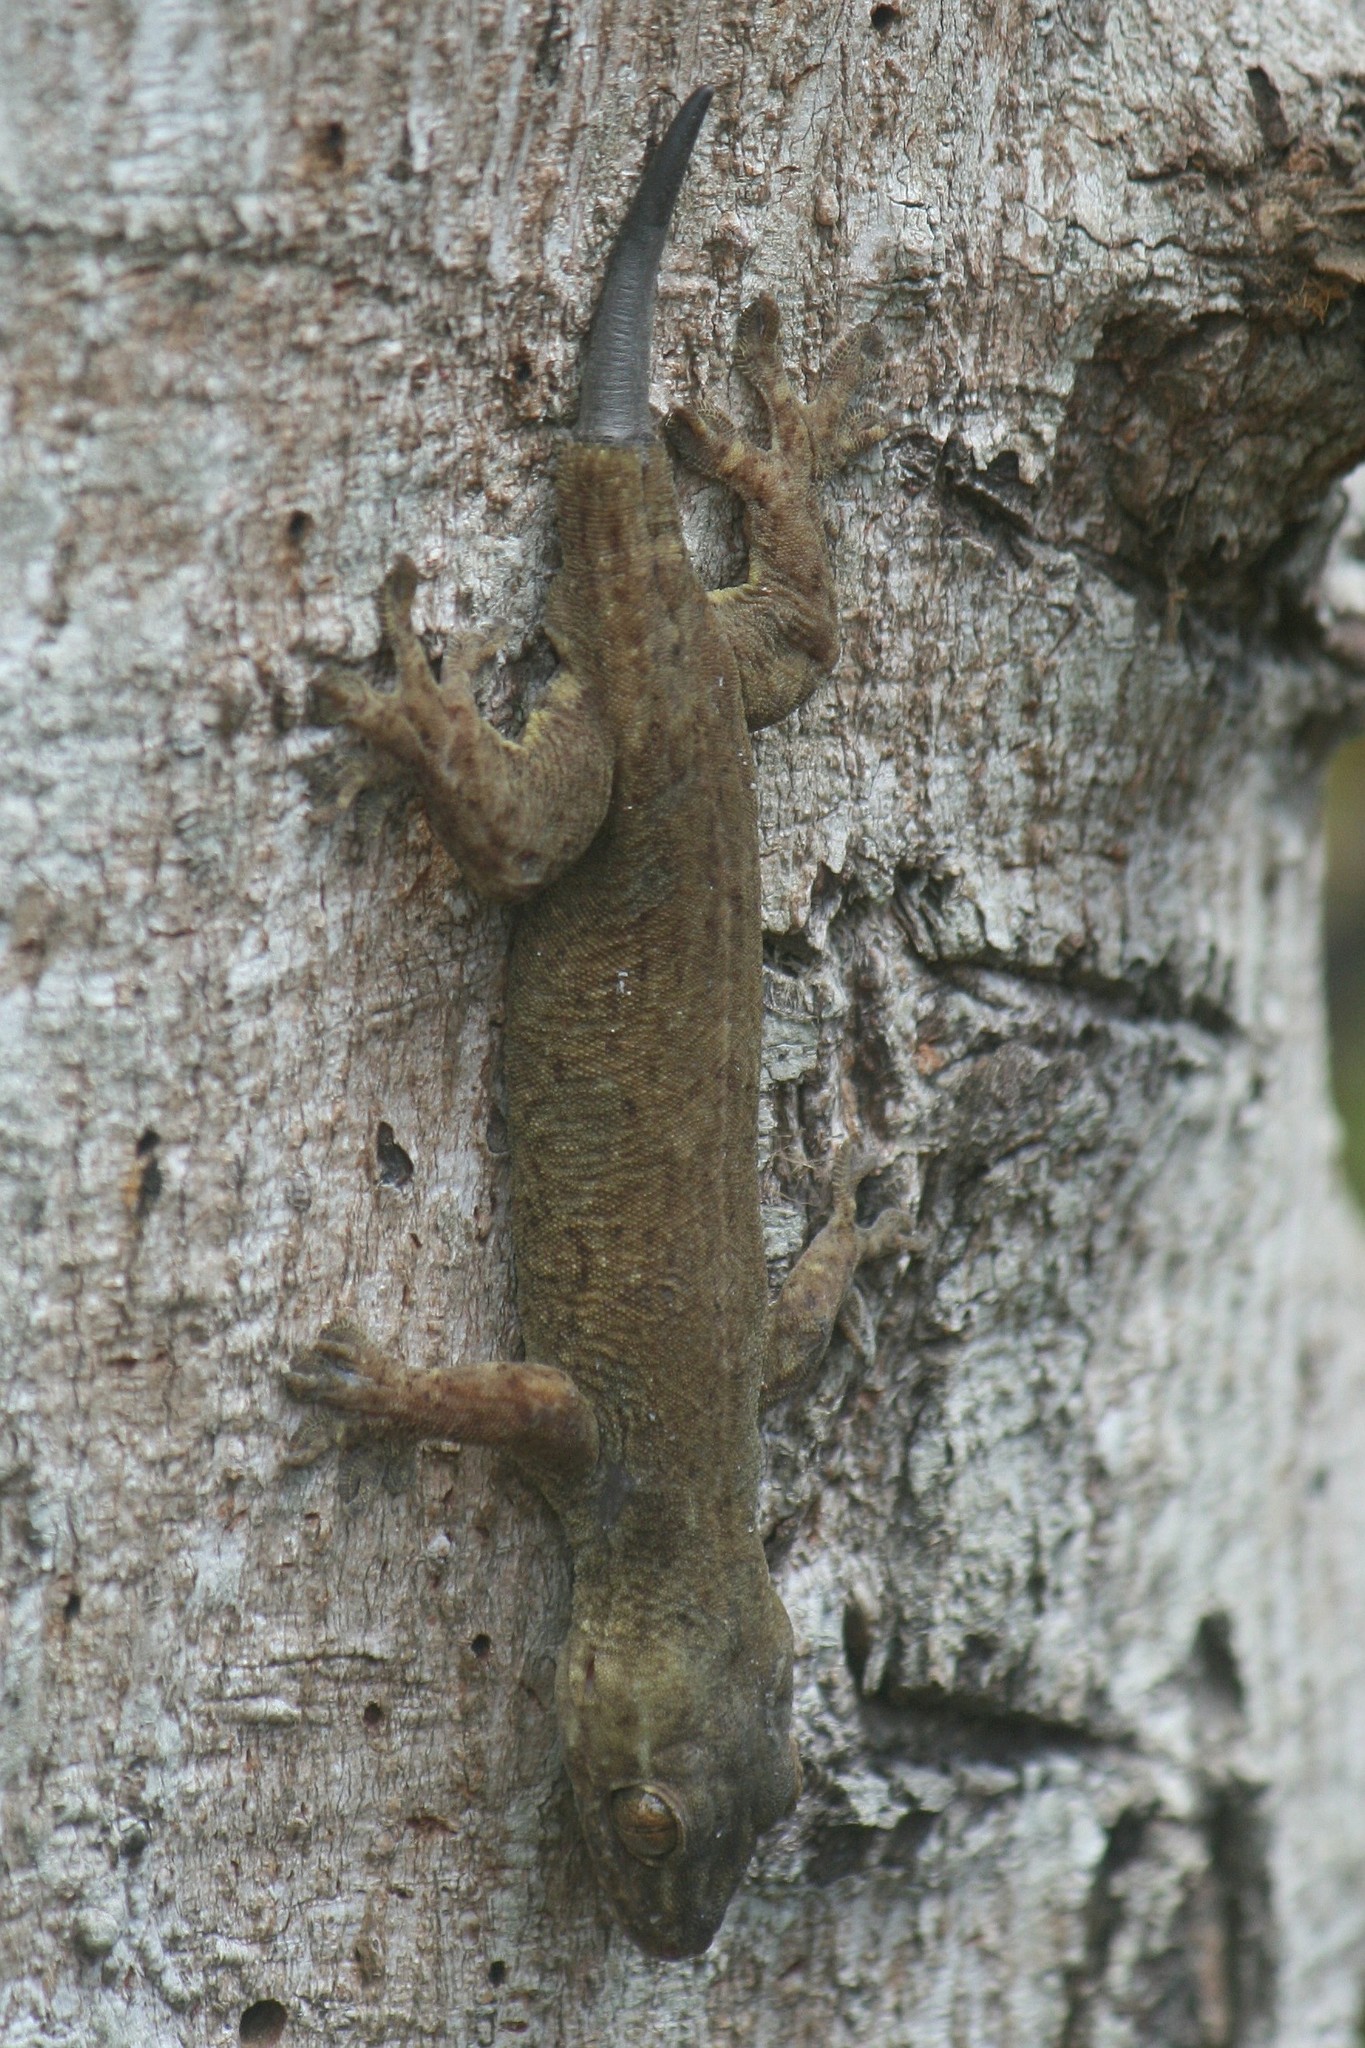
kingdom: Animalia
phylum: Chordata
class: Squamata
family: Gekkonidae
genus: Gehyra
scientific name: Gehyra oceanica
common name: Pacific dtella
